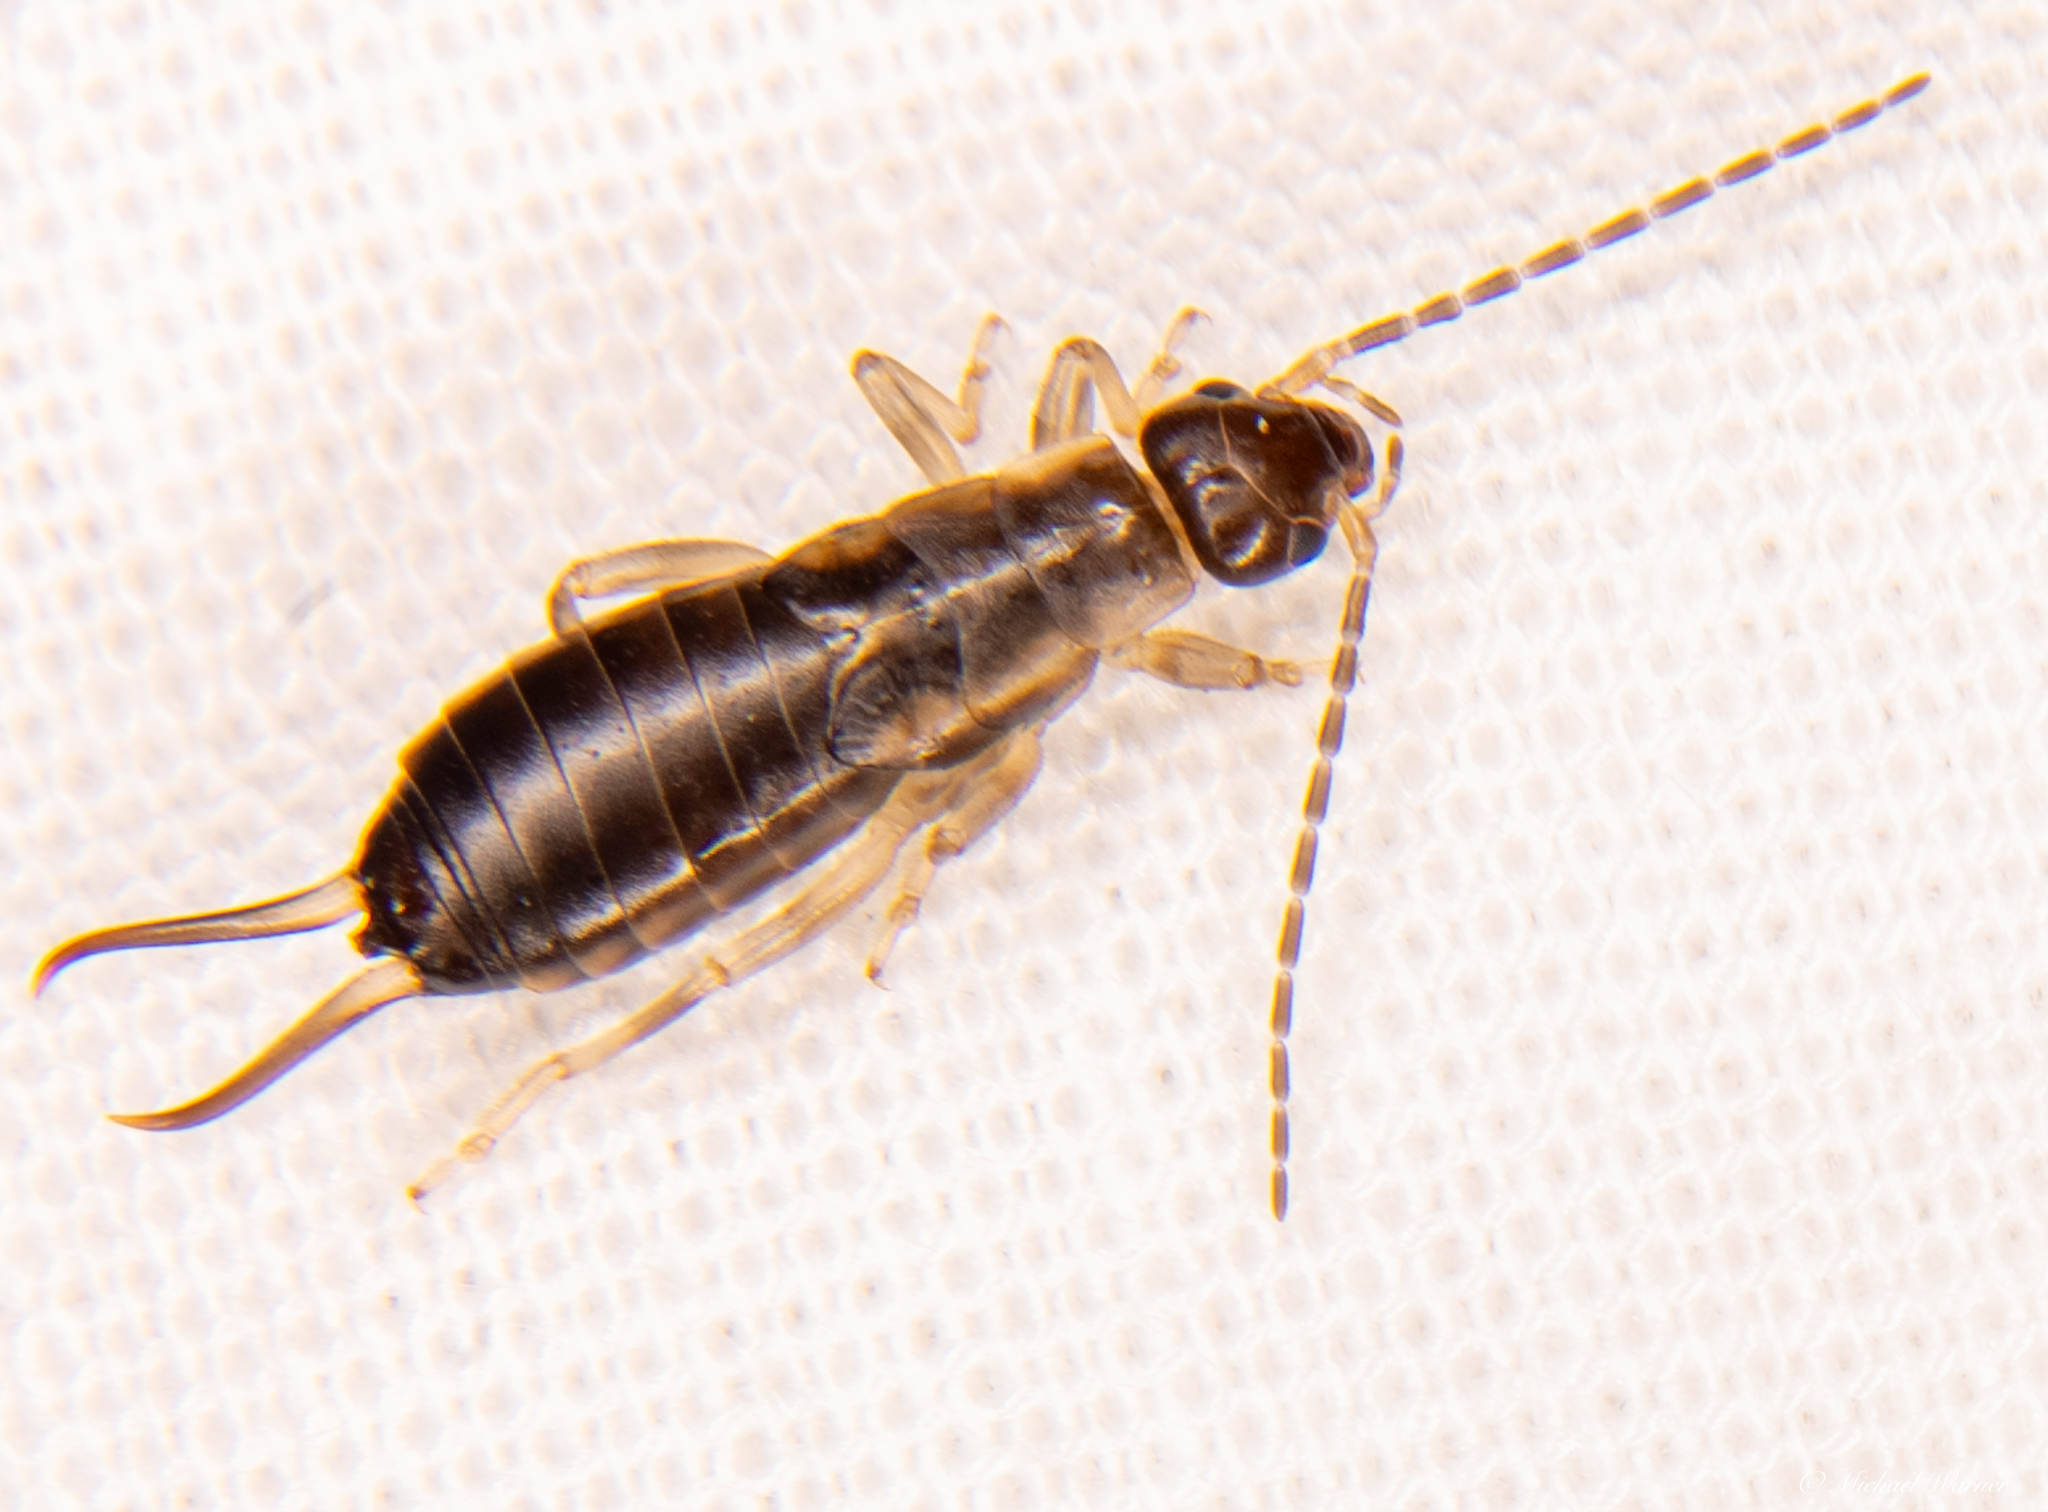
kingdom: Animalia
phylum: Arthropoda
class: Insecta
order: Dermaptera
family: Forficulidae
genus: Forficula
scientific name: Forficula dentata
